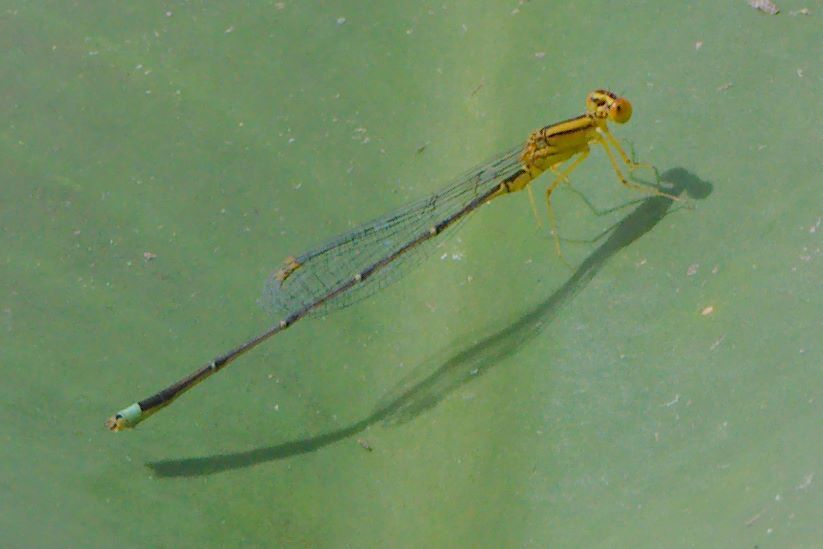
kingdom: Animalia
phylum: Arthropoda
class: Insecta
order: Odonata
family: Coenagrionidae
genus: Enallagma
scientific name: Enallagma vesperum
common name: Vesper bluet
